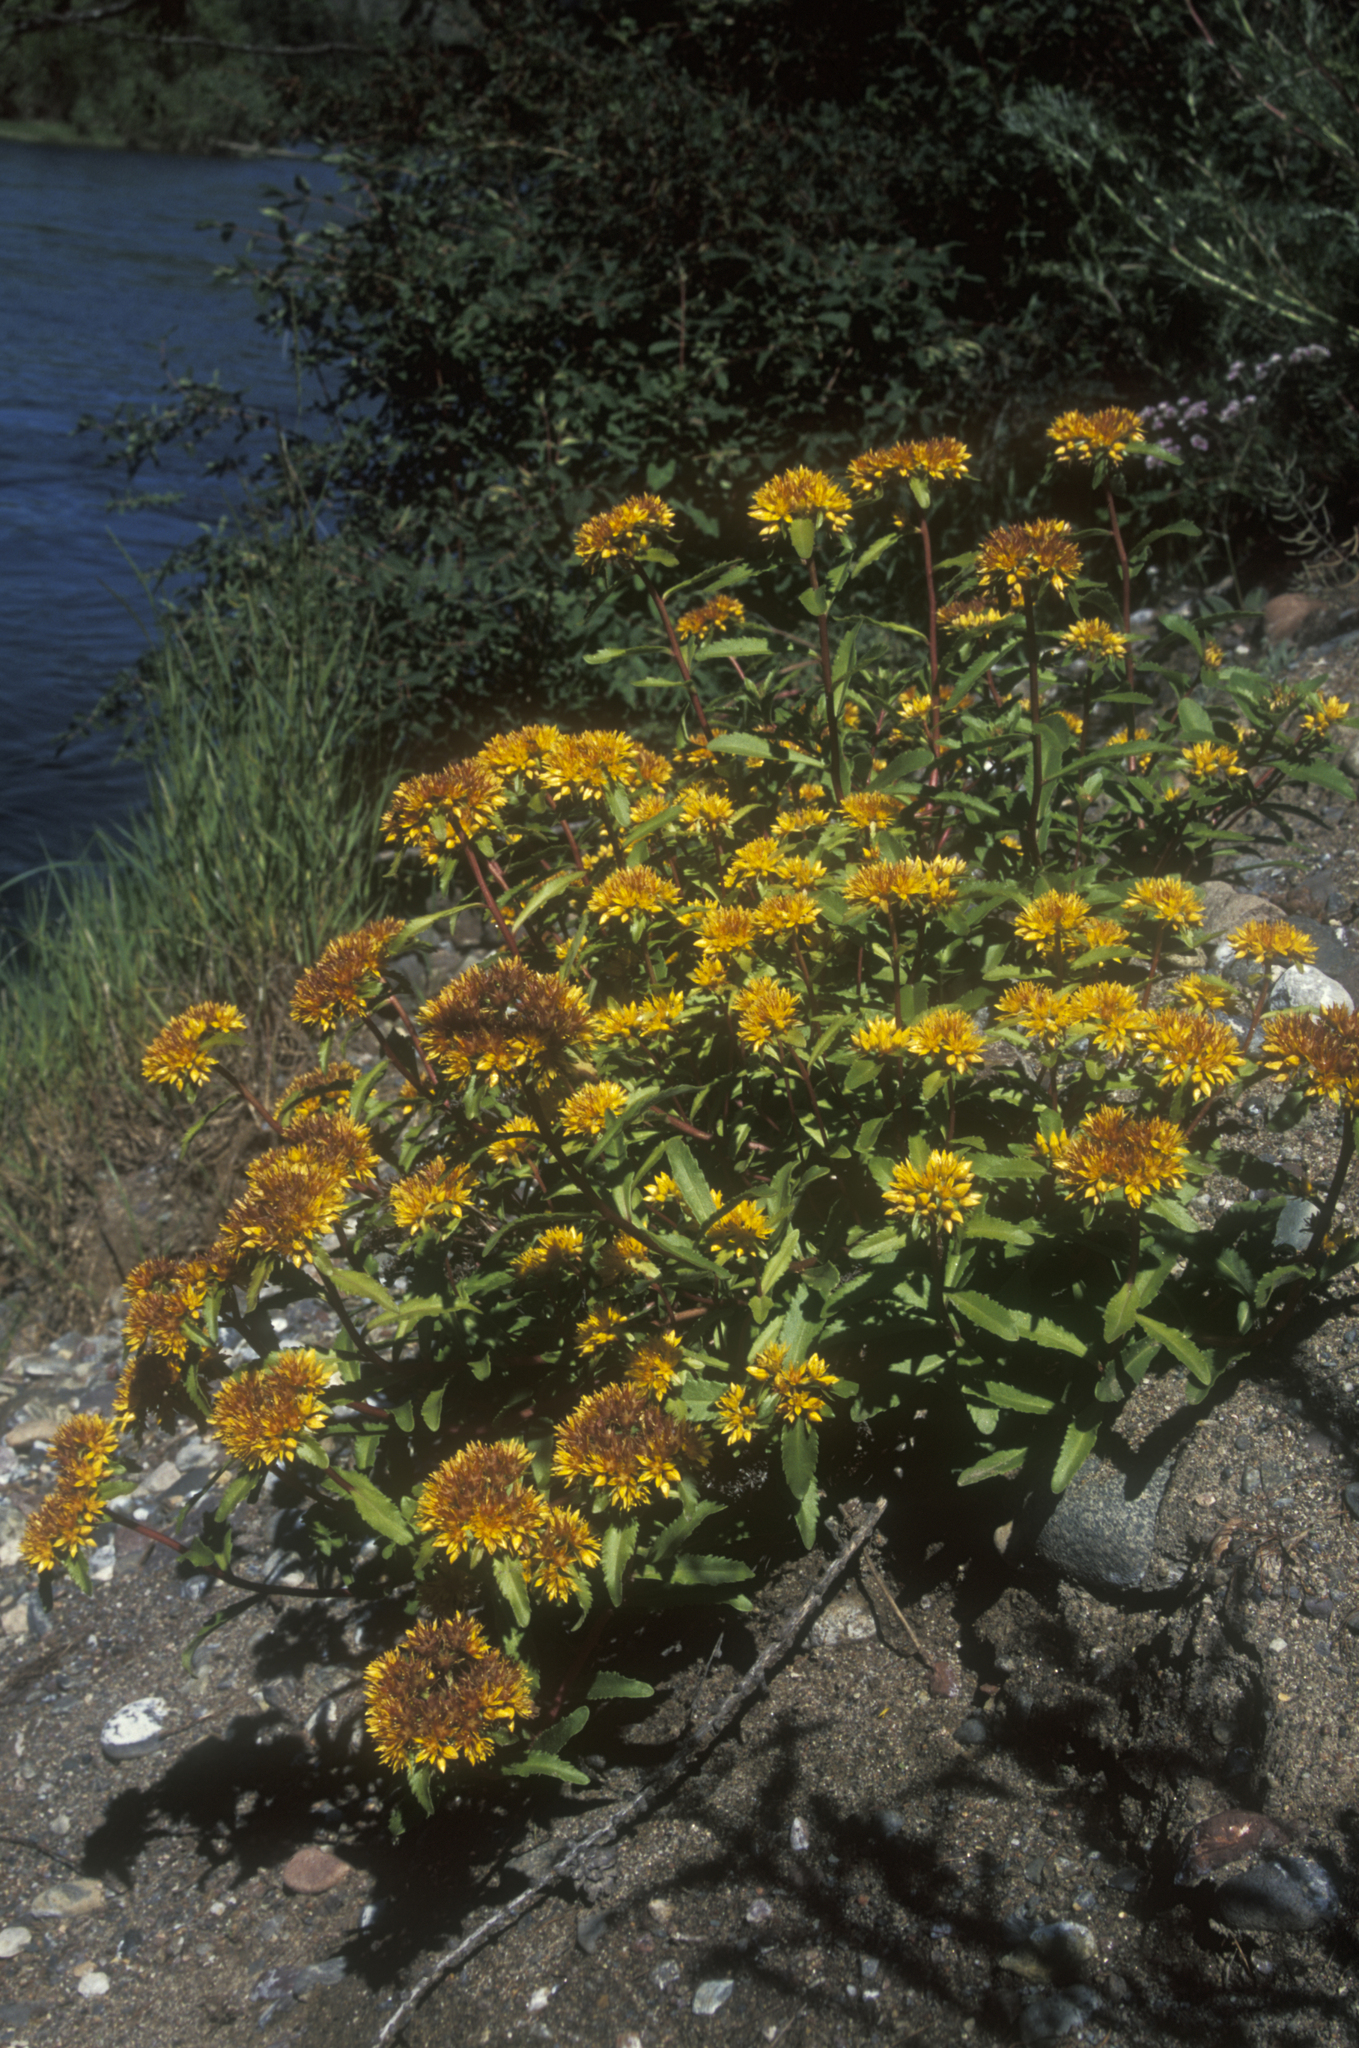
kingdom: Plantae
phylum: Tracheophyta
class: Magnoliopsida
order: Saxifragales
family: Crassulaceae
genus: Phedimus
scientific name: Phedimus aizoon
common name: Orpin aizoon
